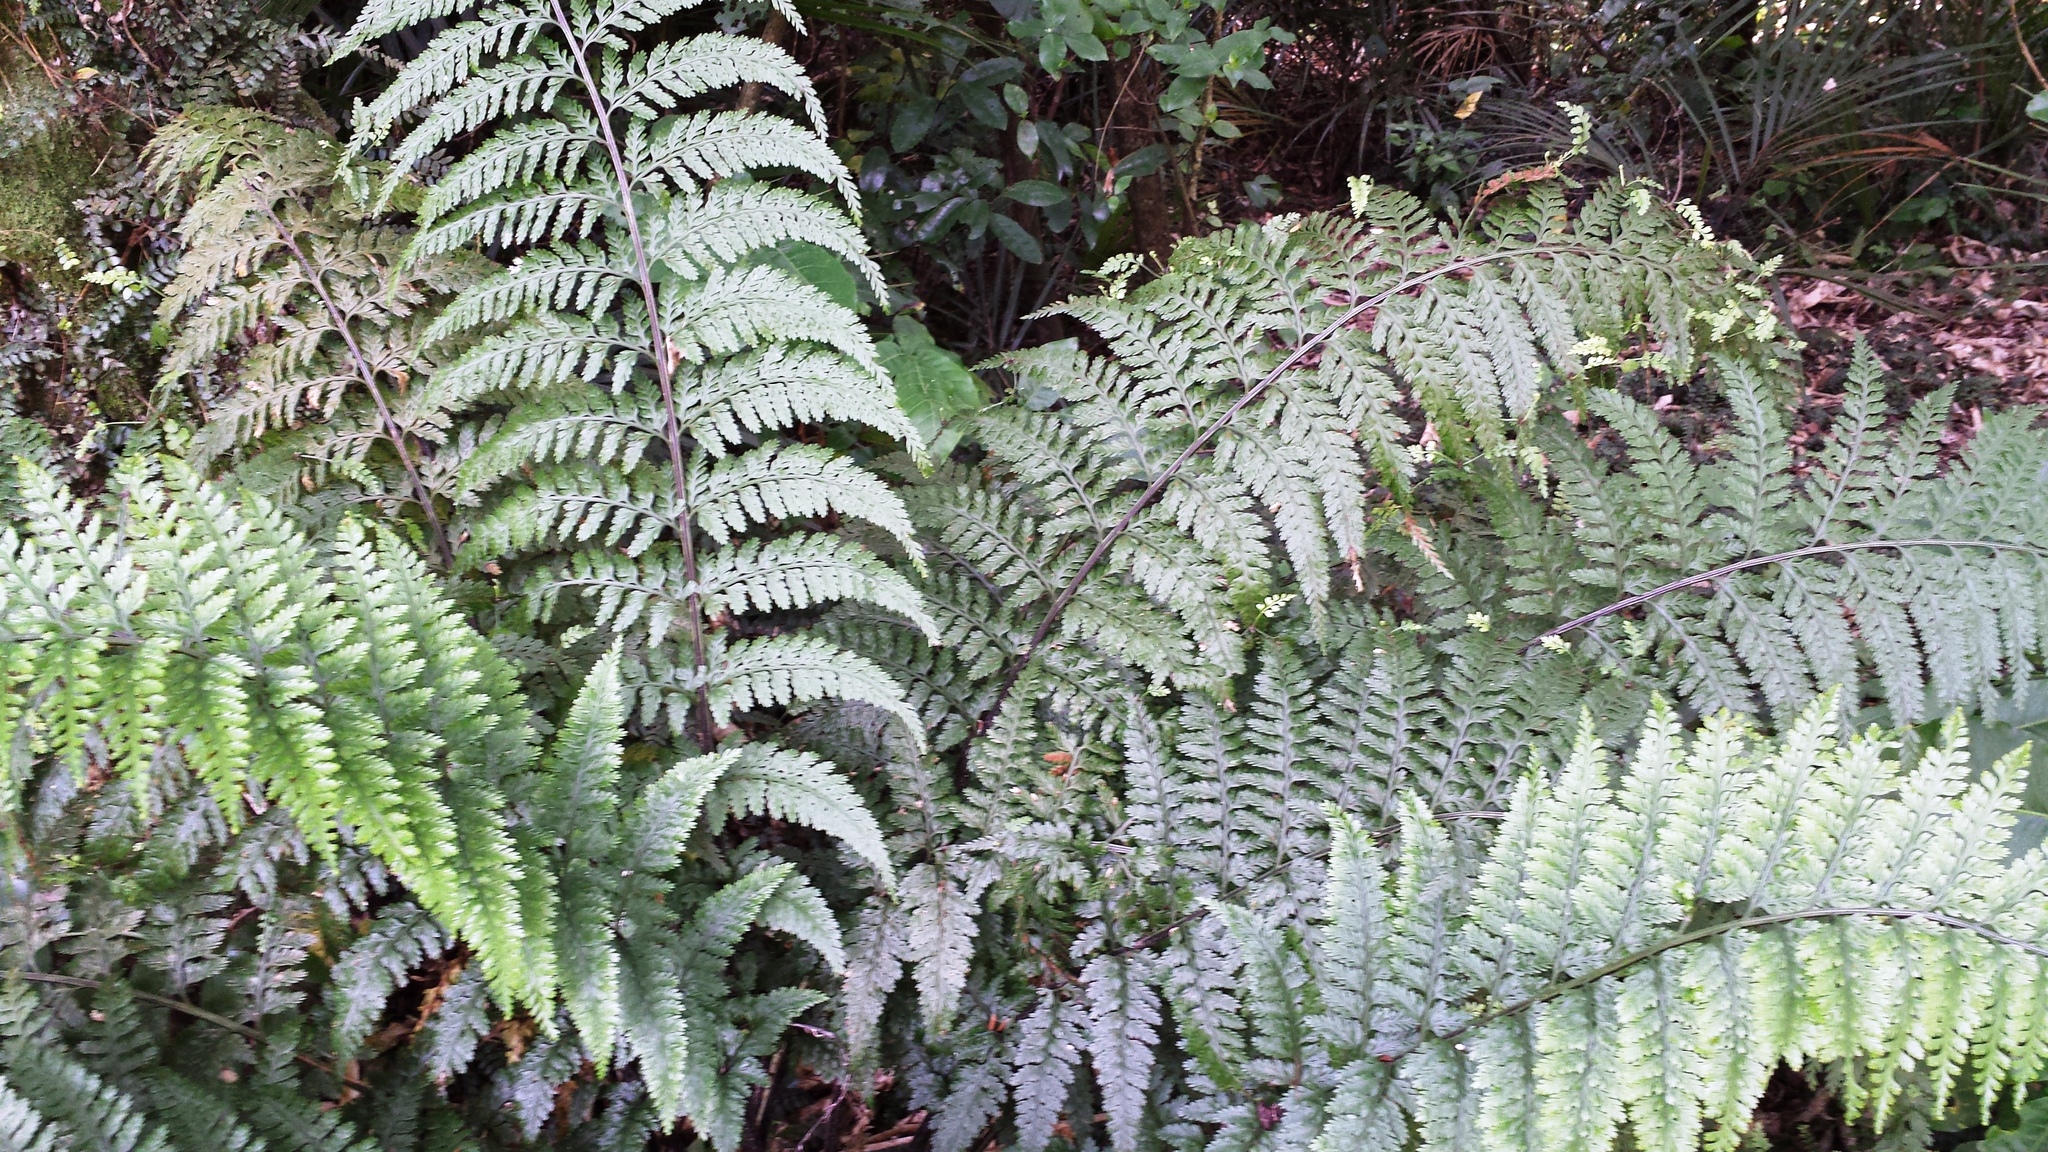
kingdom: Plantae
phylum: Tracheophyta
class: Polypodiopsida
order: Polypodiales
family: Aspleniaceae
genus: Asplenium
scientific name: Asplenium bulbiferum
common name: Mother fern
